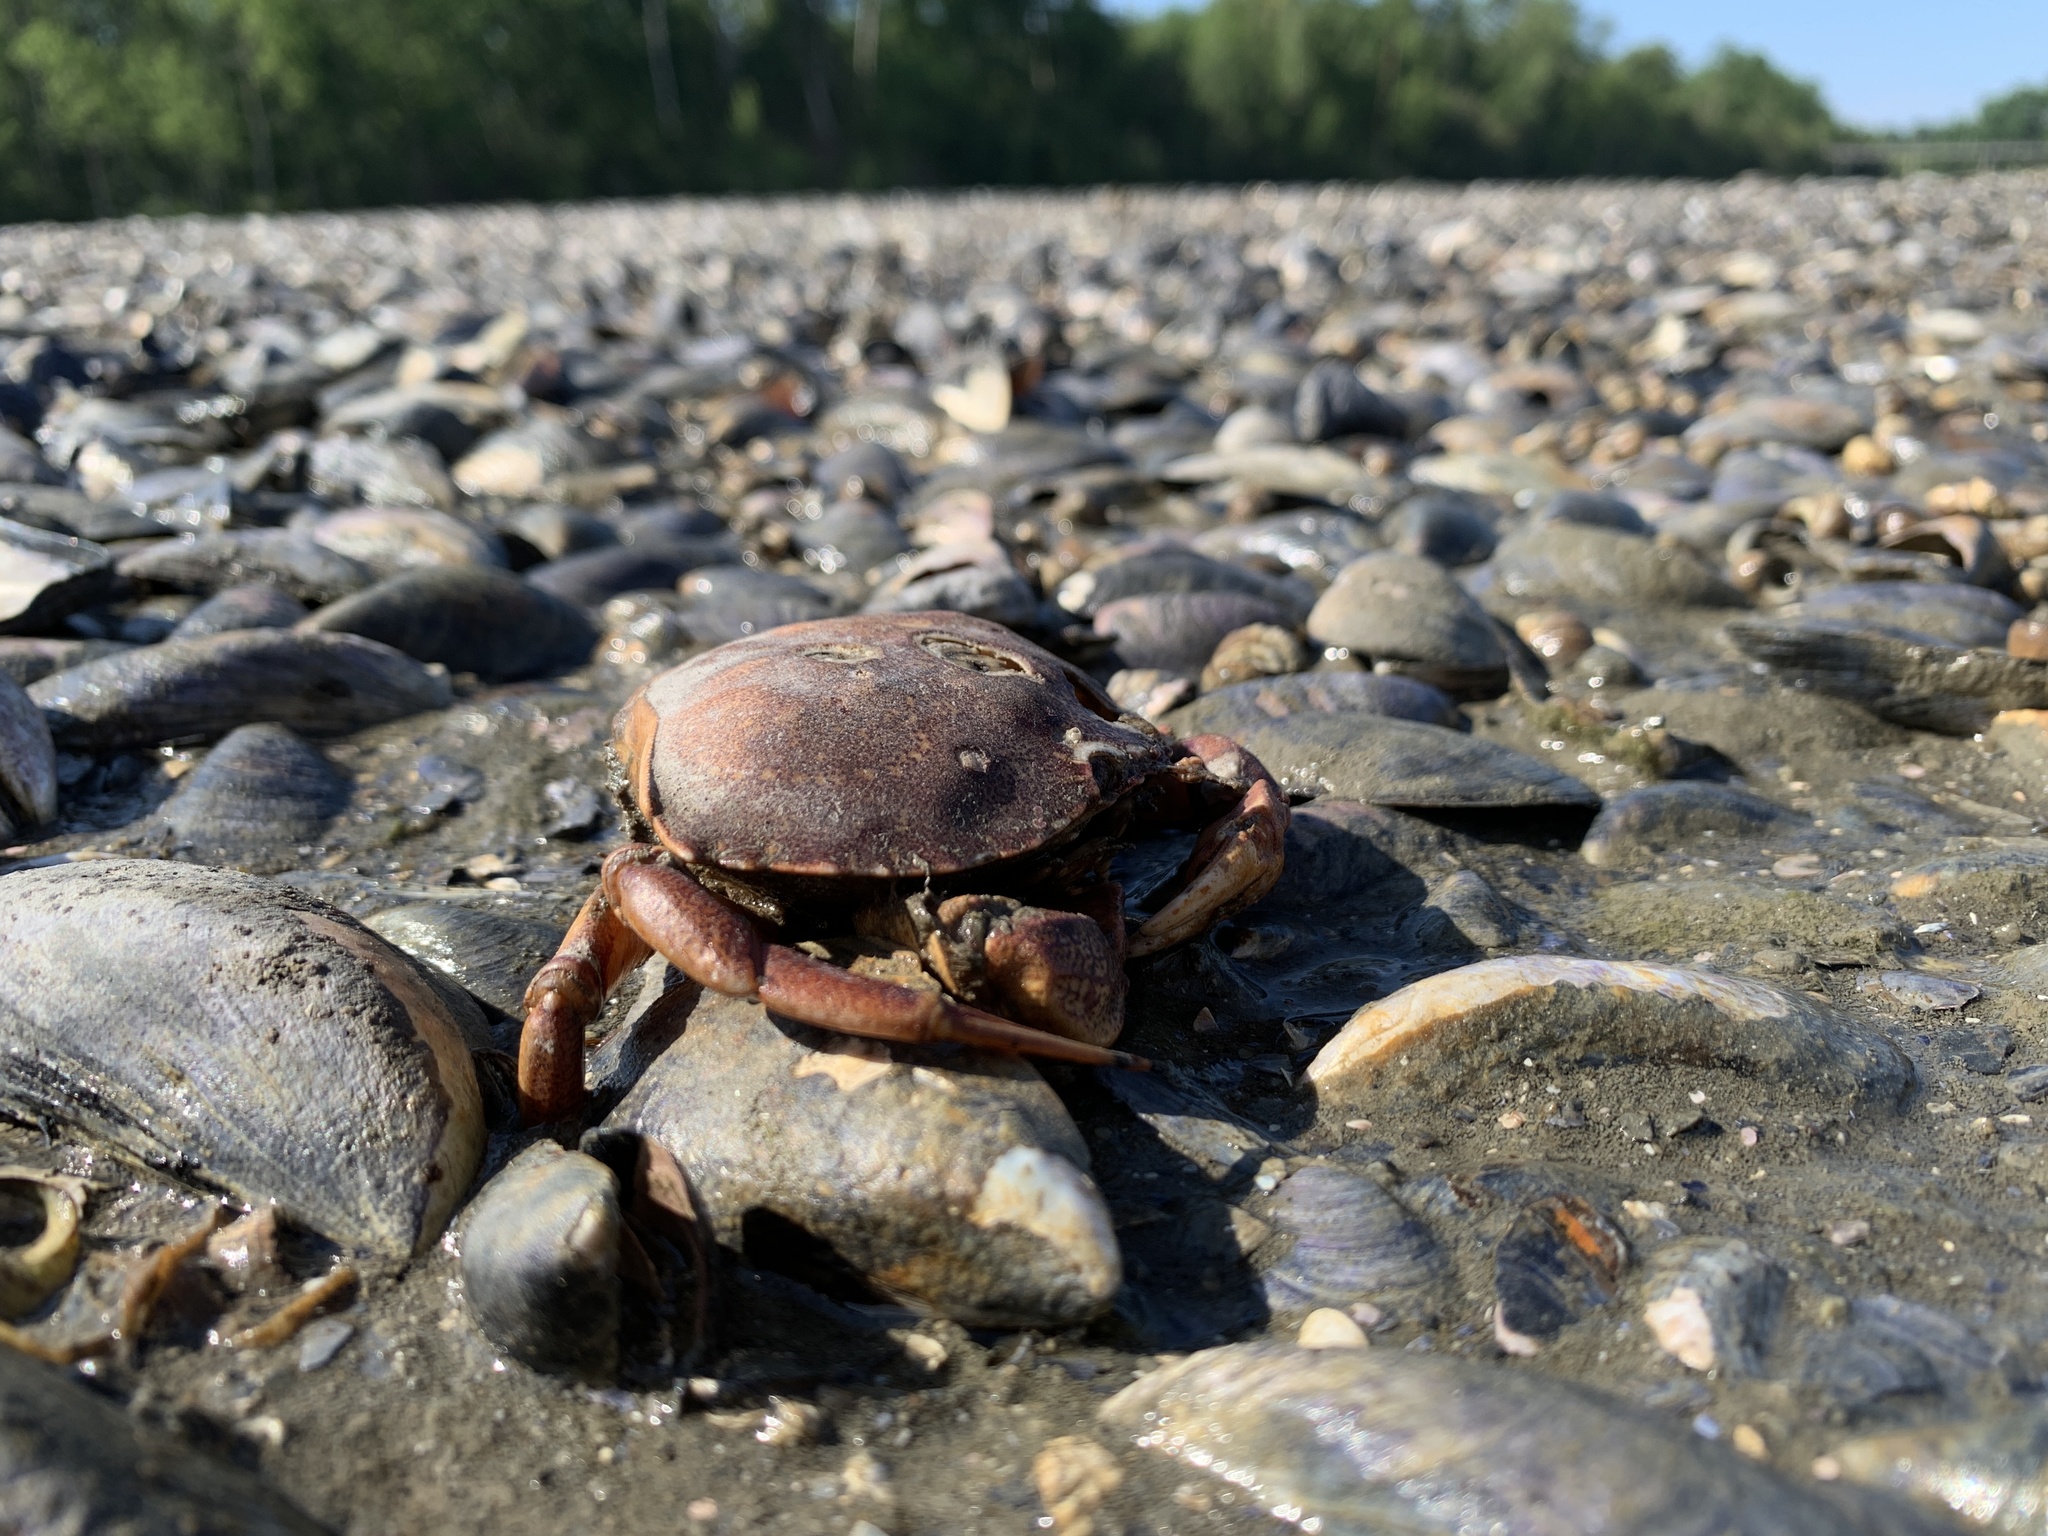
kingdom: Animalia
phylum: Arthropoda
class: Malacostraca
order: Decapoda
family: Cancridae
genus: Cancer
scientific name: Cancer irroratus
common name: Atlantic rock crab
